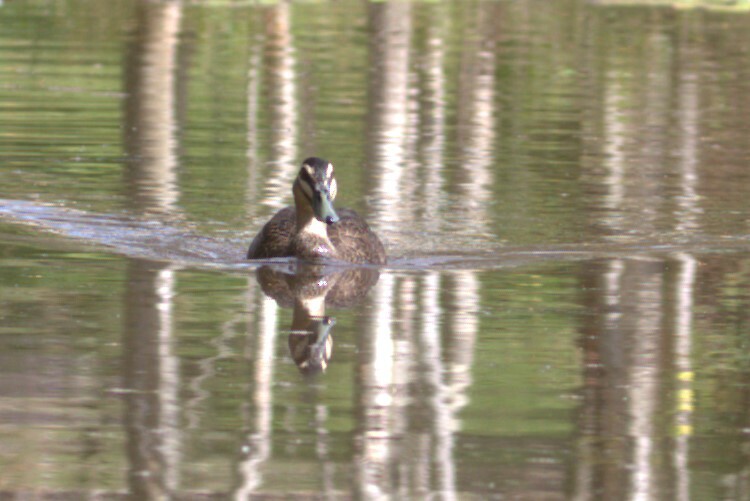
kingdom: Animalia
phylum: Chordata
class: Aves
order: Anseriformes
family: Anatidae
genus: Anas
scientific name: Anas superciliosa
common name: Pacific black duck
